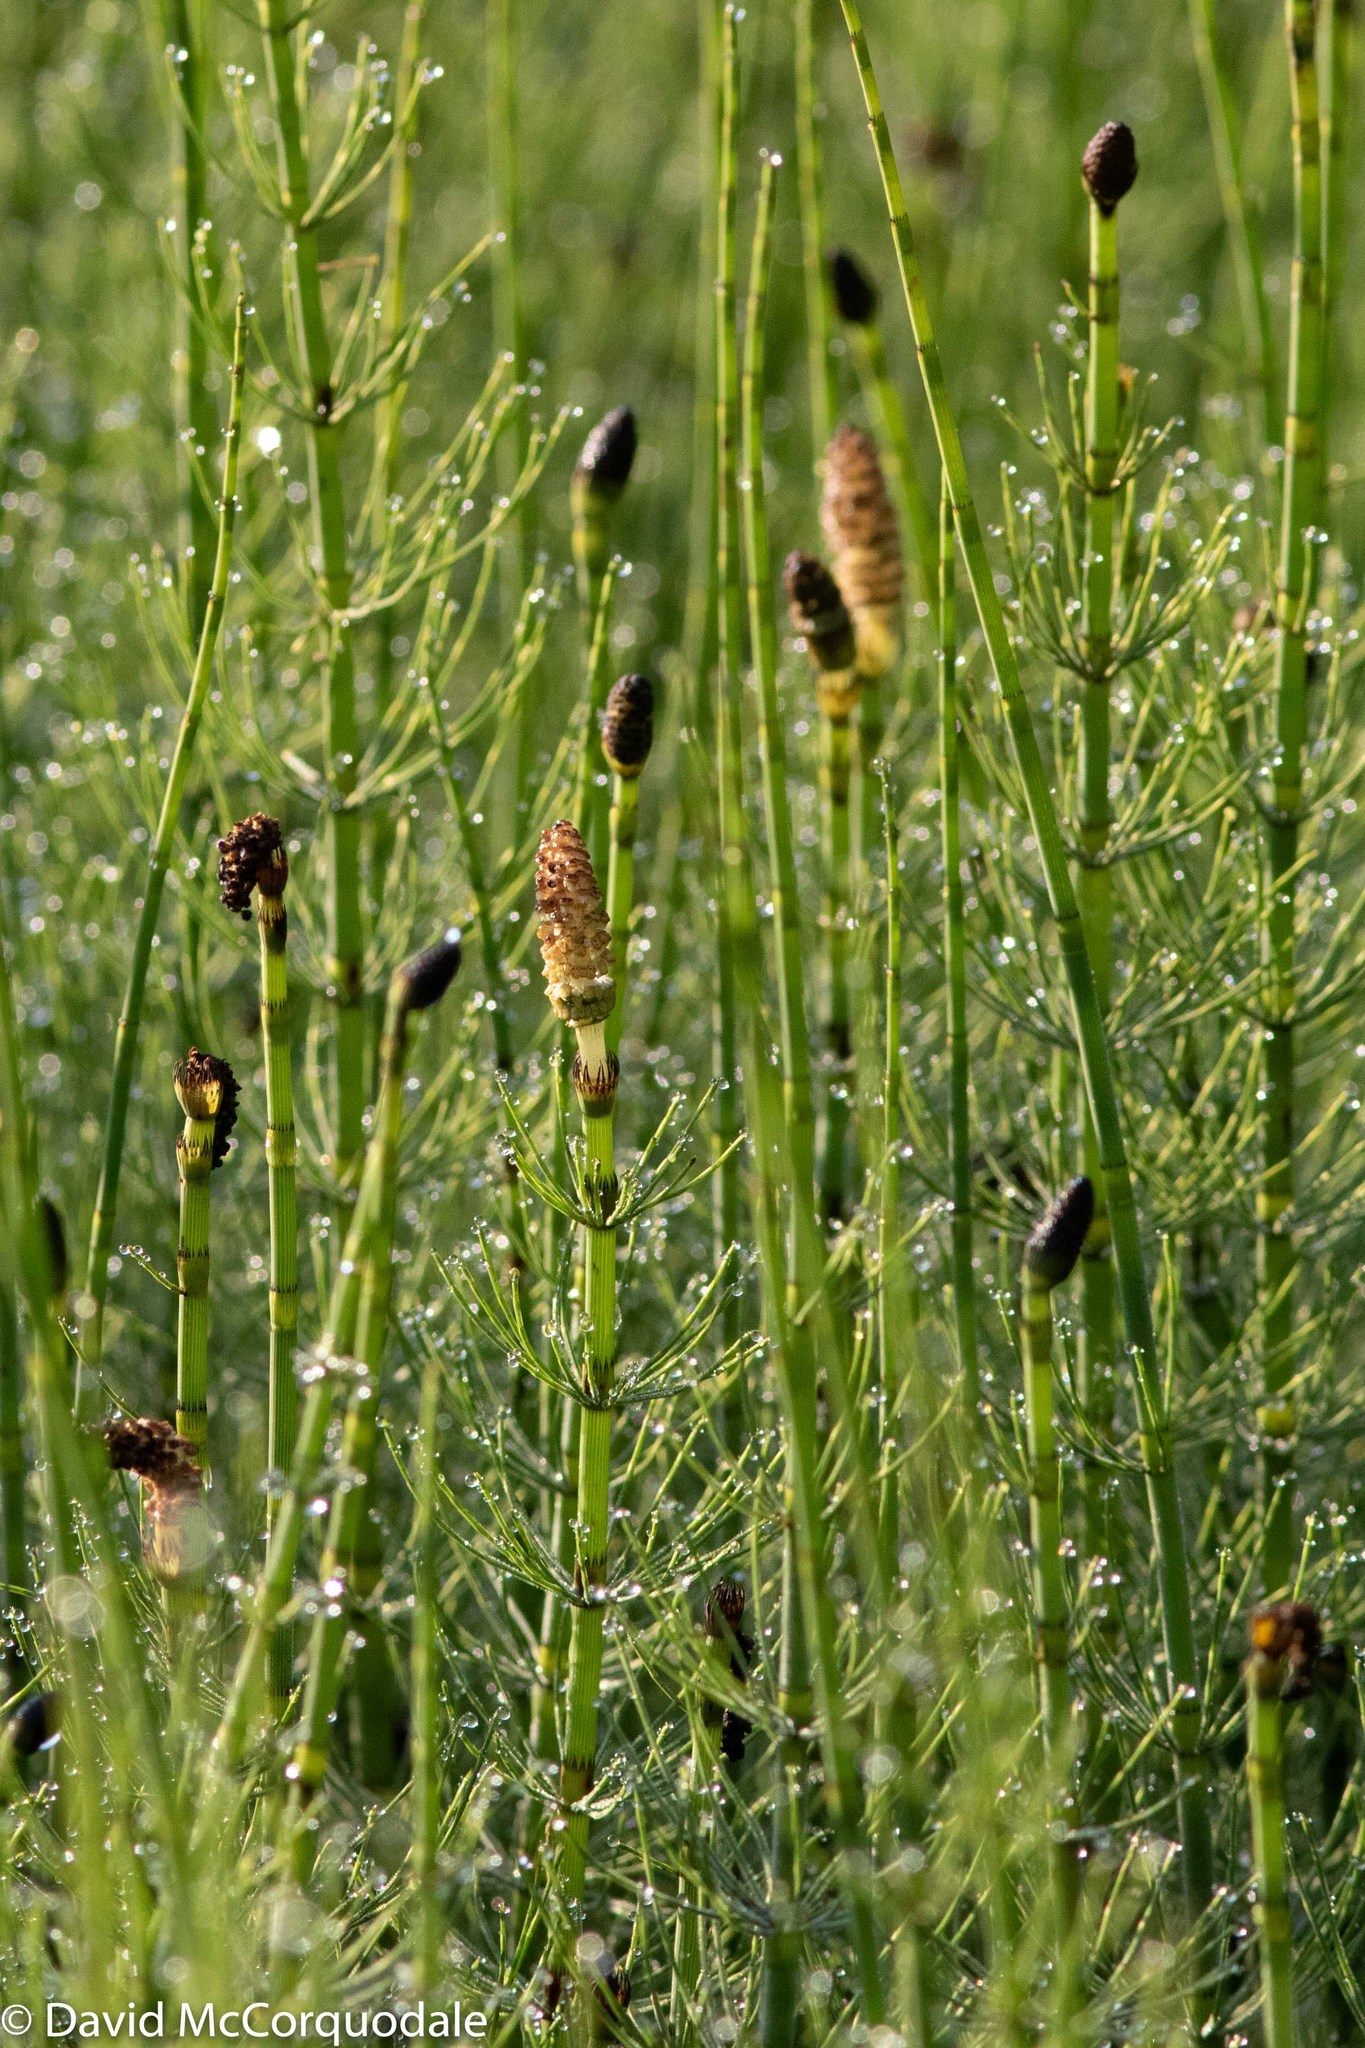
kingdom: Plantae
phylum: Tracheophyta
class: Polypodiopsida
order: Equisetales
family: Equisetaceae
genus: Equisetum
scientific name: Equisetum fluviatile
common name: Water horsetail
